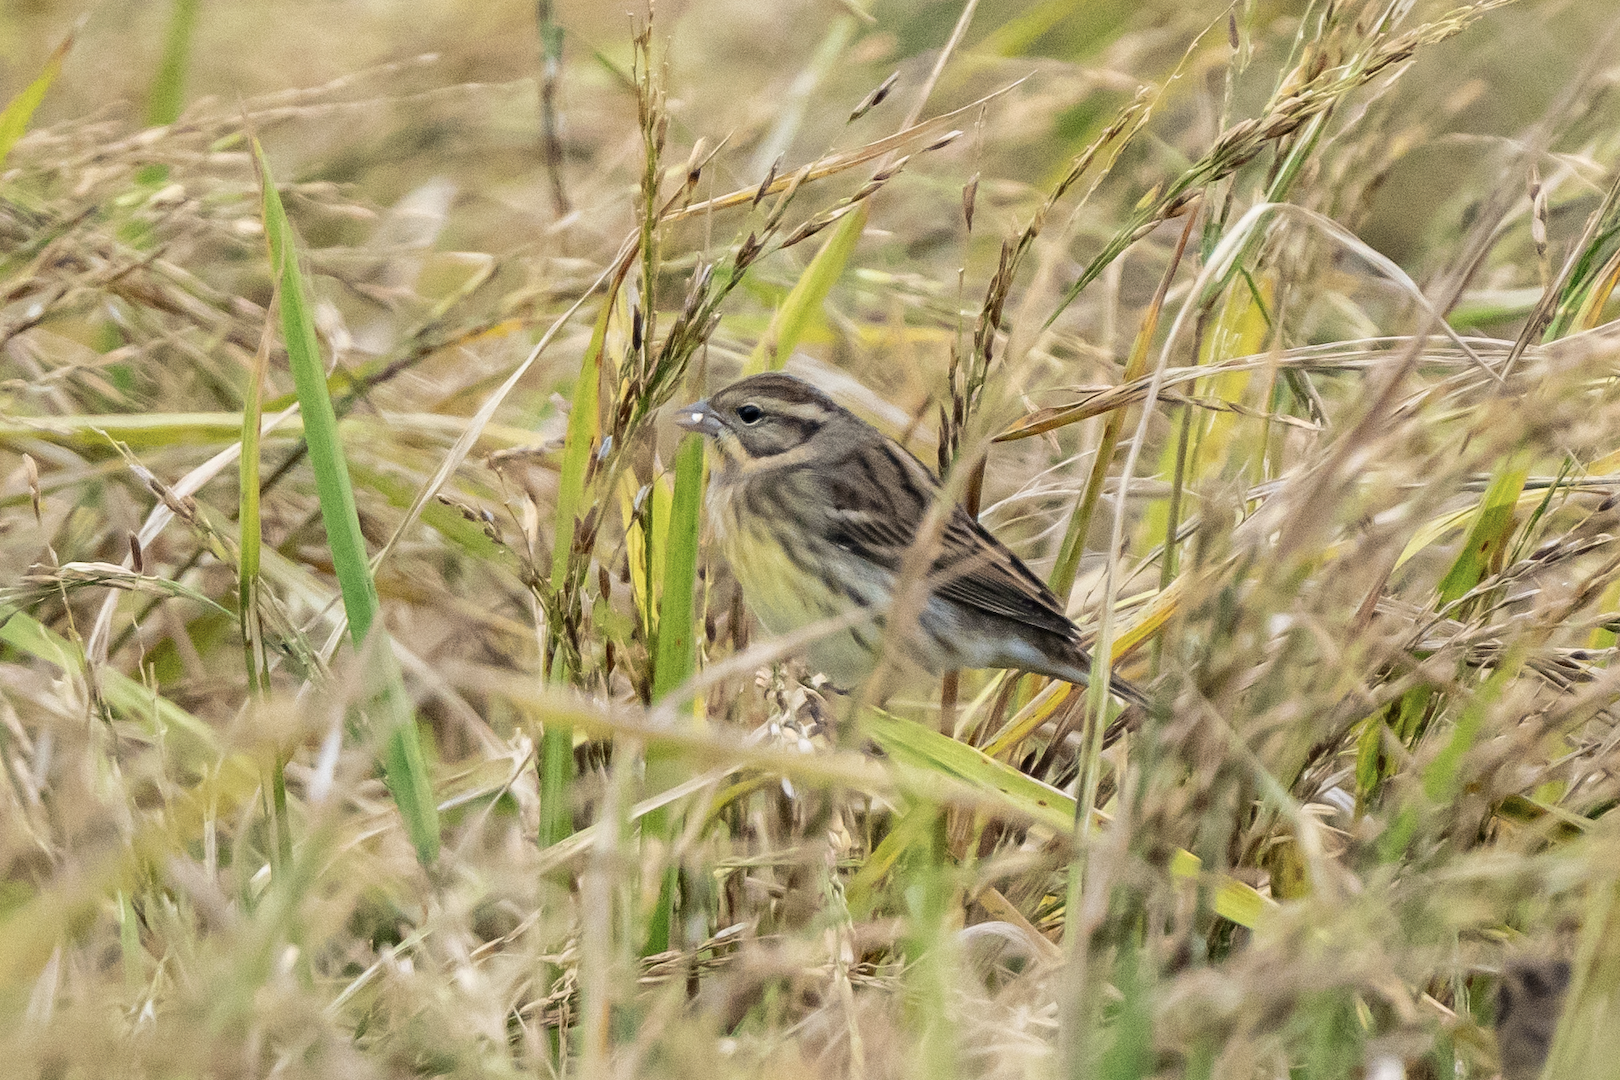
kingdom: Animalia
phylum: Chordata
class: Aves
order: Passeriformes
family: Emberizidae
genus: Emberiza
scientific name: Emberiza aureola
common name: Yellow-breasted bunting
